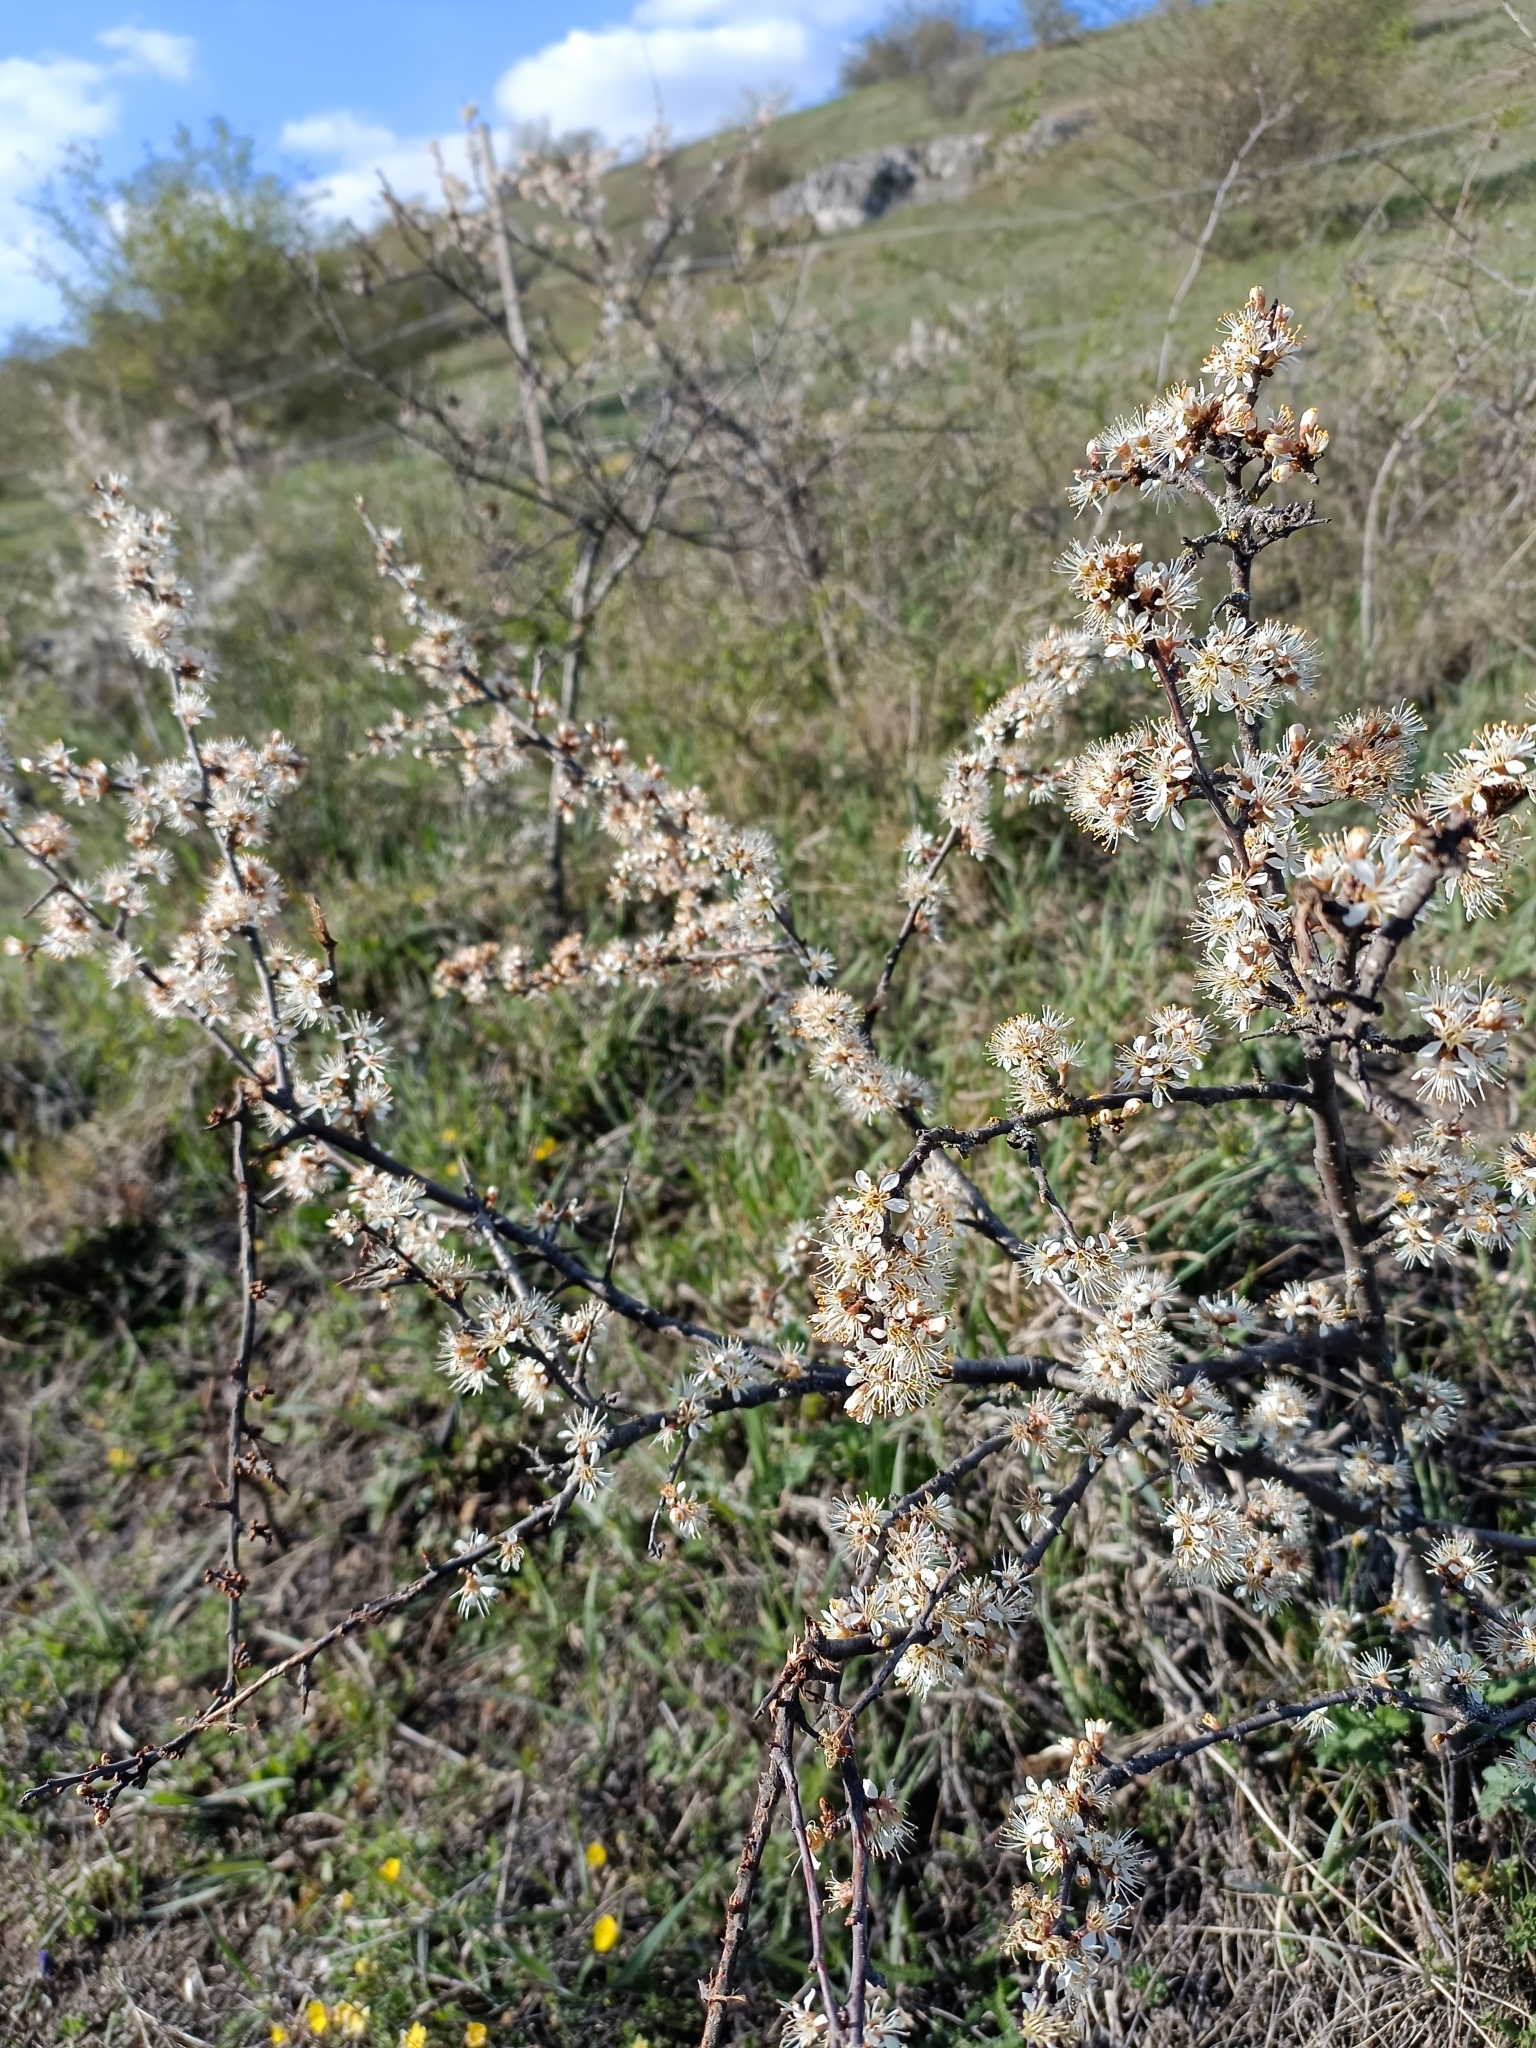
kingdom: Plantae
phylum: Tracheophyta
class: Magnoliopsida
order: Rosales
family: Rosaceae
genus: Prunus
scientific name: Prunus spinosa
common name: Blackthorn
